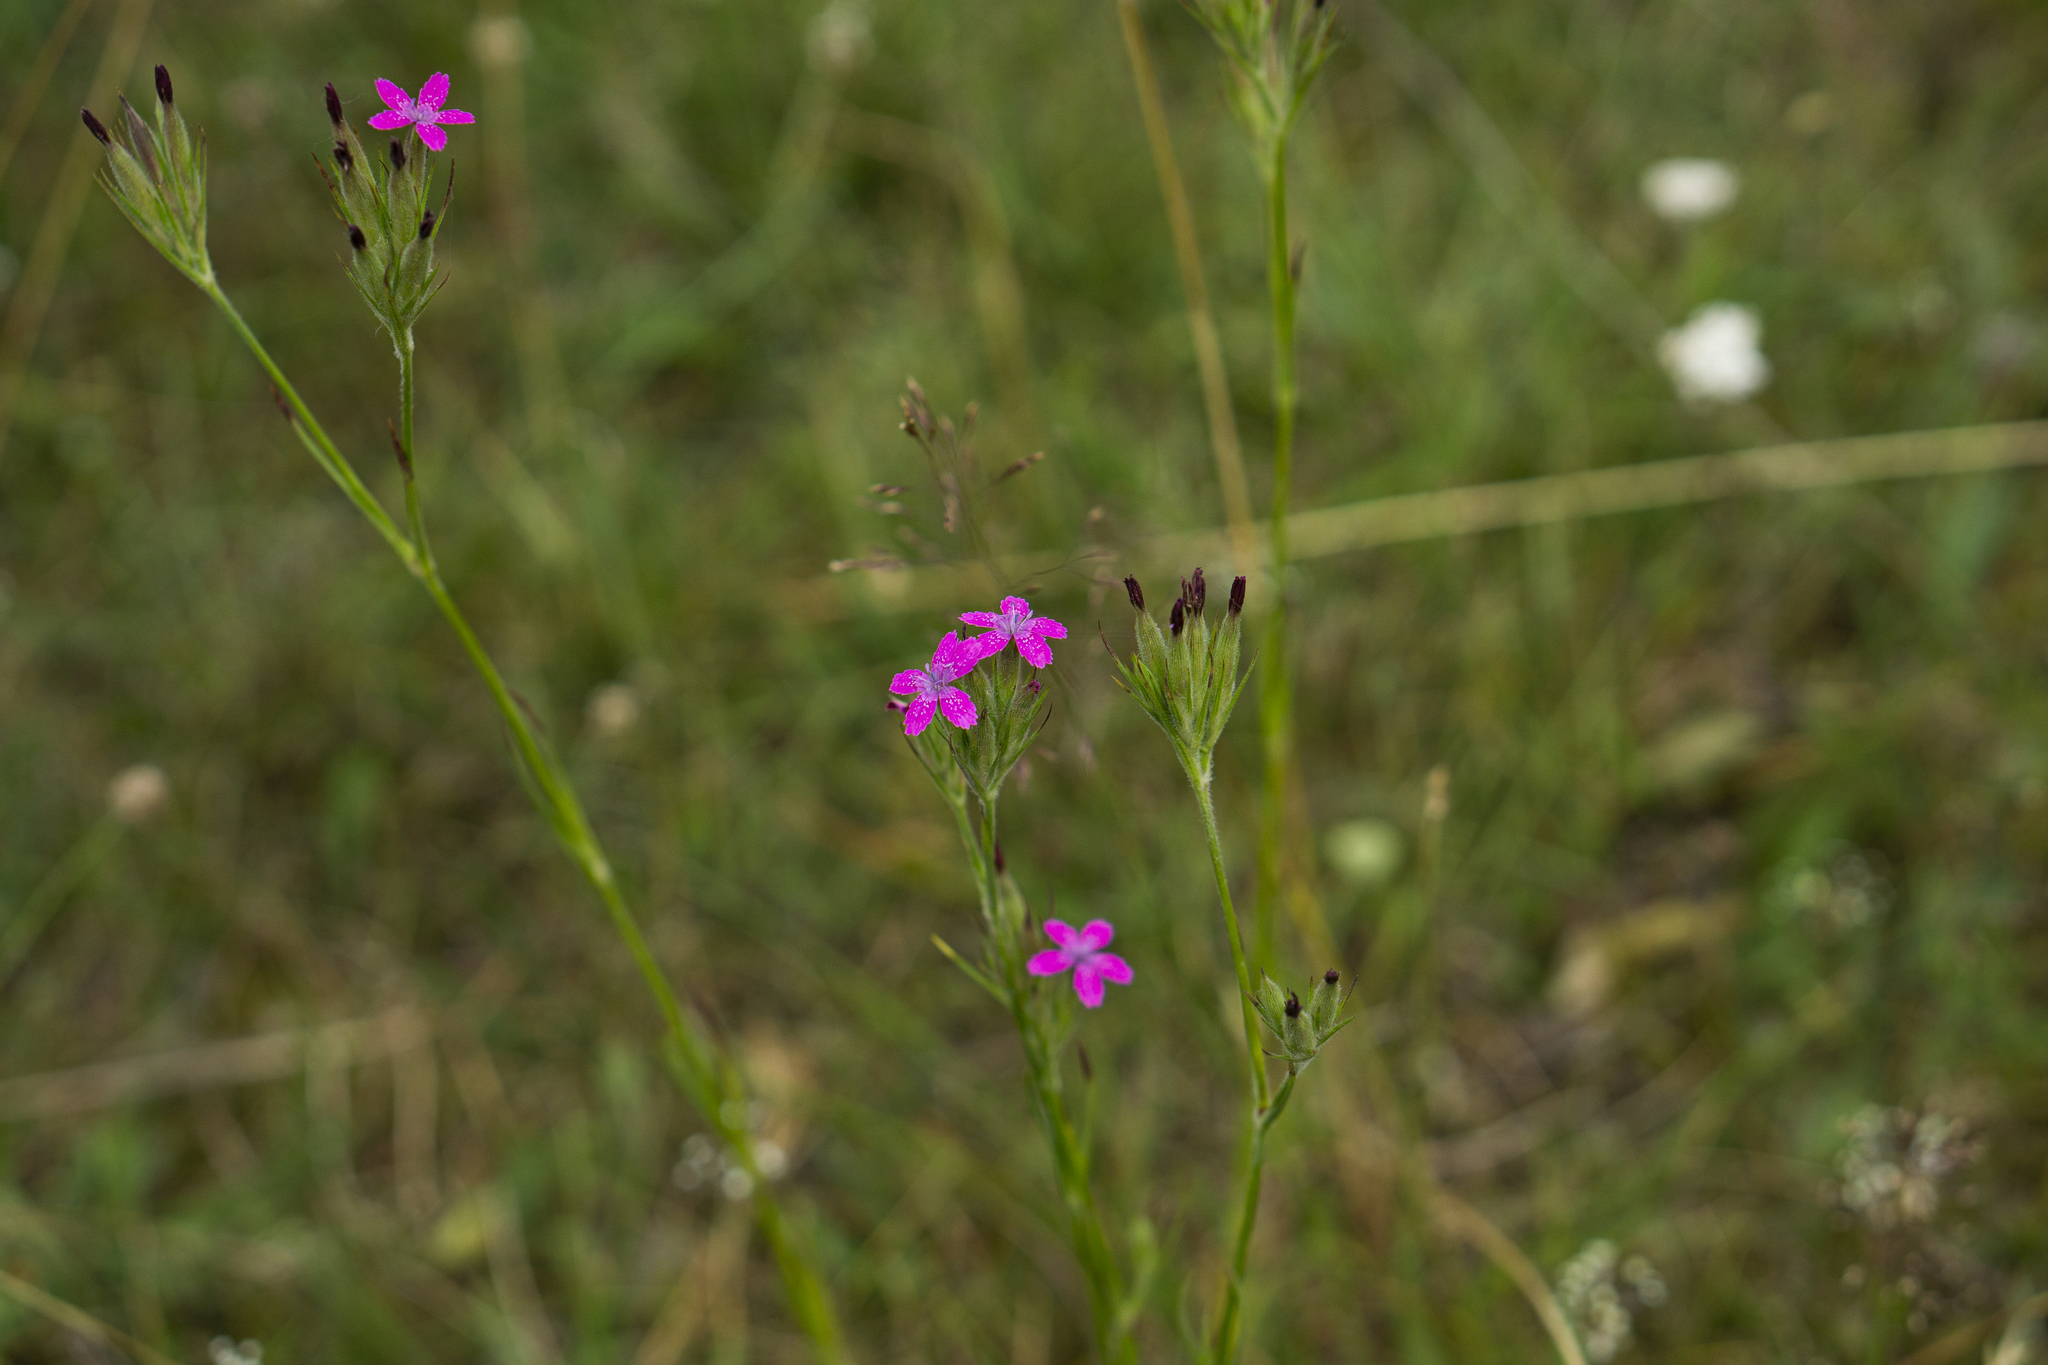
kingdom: Plantae
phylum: Tracheophyta
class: Magnoliopsida
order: Caryophyllales
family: Caryophyllaceae
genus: Dianthus
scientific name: Dianthus armeria
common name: Deptford pink
